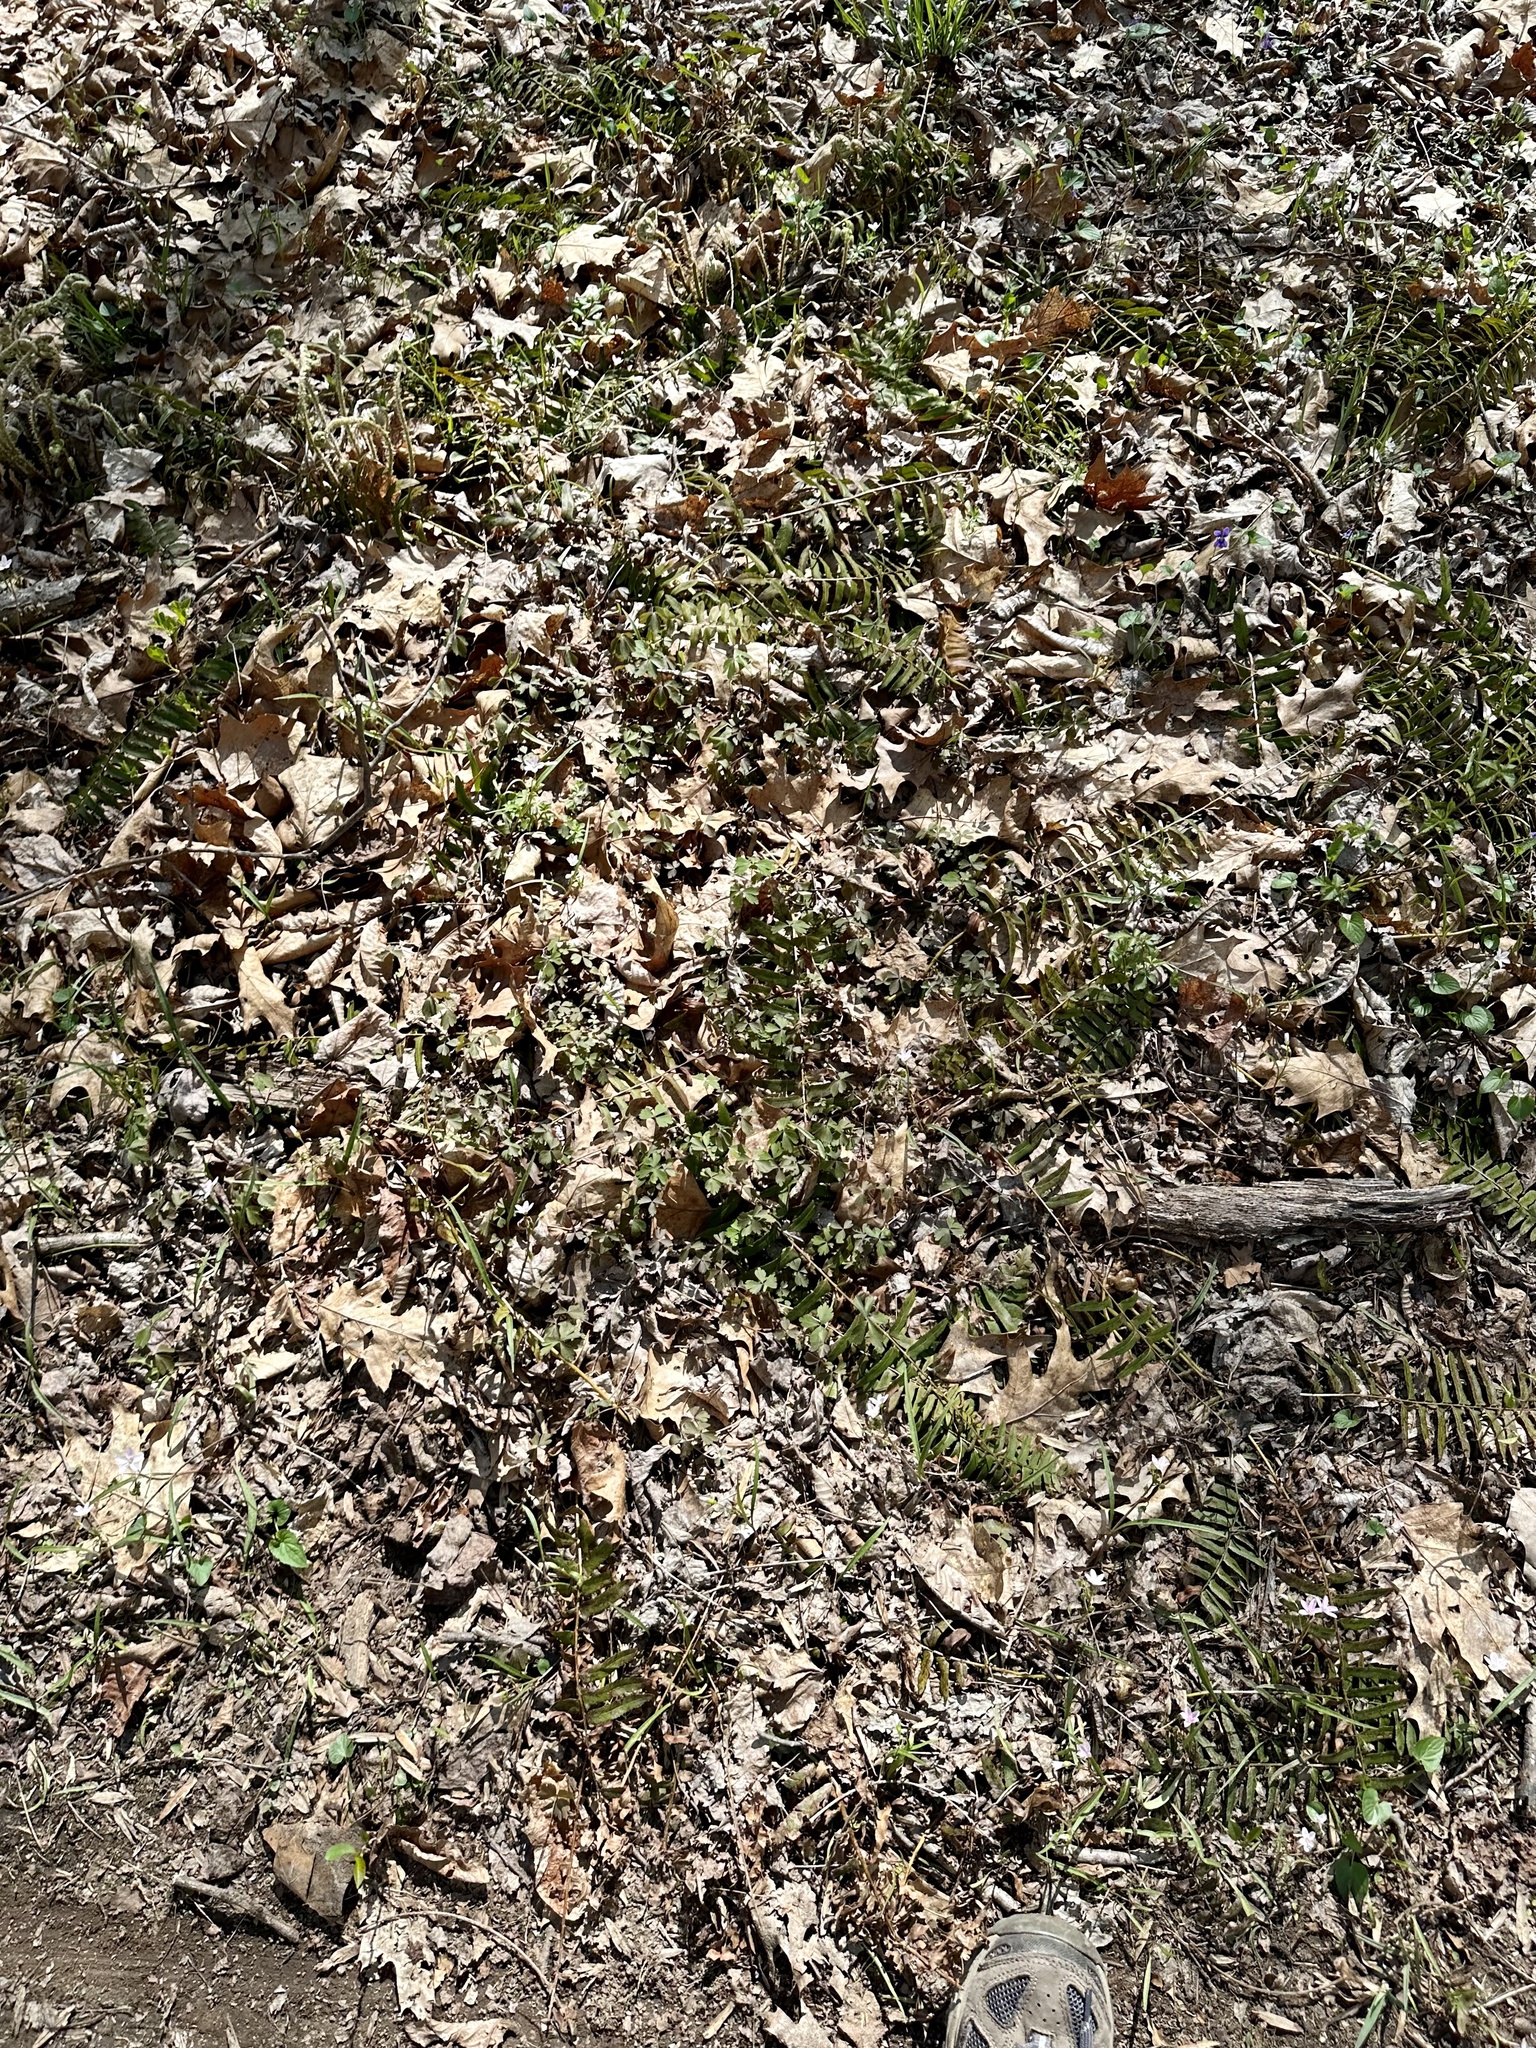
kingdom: Plantae
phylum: Tracheophyta
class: Magnoliopsida
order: Ranunculales
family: Ranunculaceae
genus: Anemone
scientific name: Anemone quinquefolia
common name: Wood anemone
